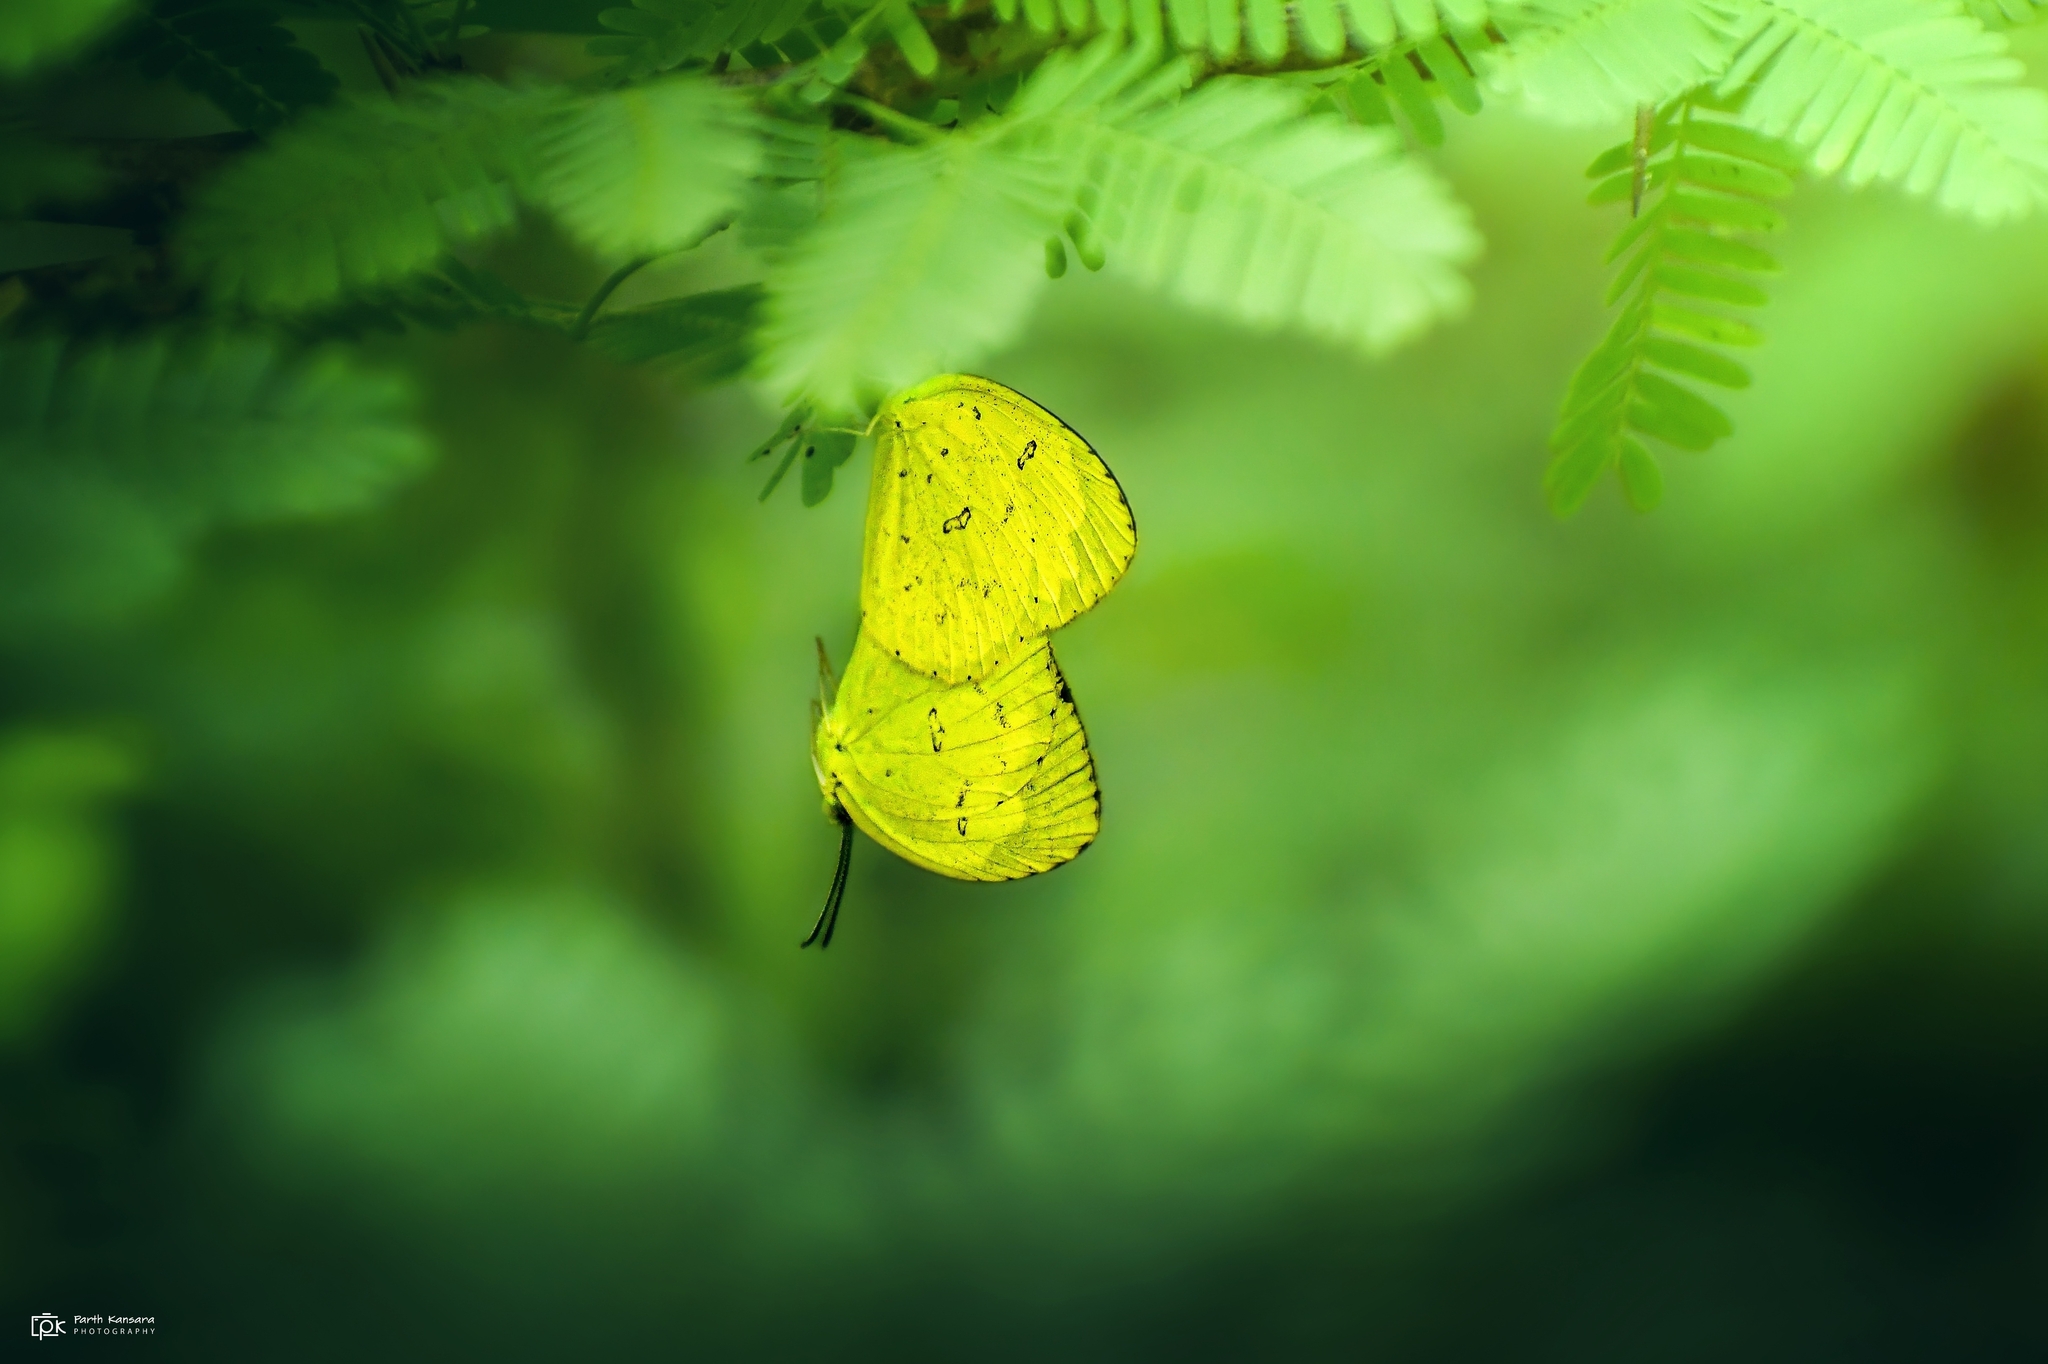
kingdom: Animalia
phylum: Arthropoda
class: Insecta
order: Lepidoptera
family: Pieridae
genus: Eurema
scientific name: Eurema hecabe
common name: Pale grass yellow
